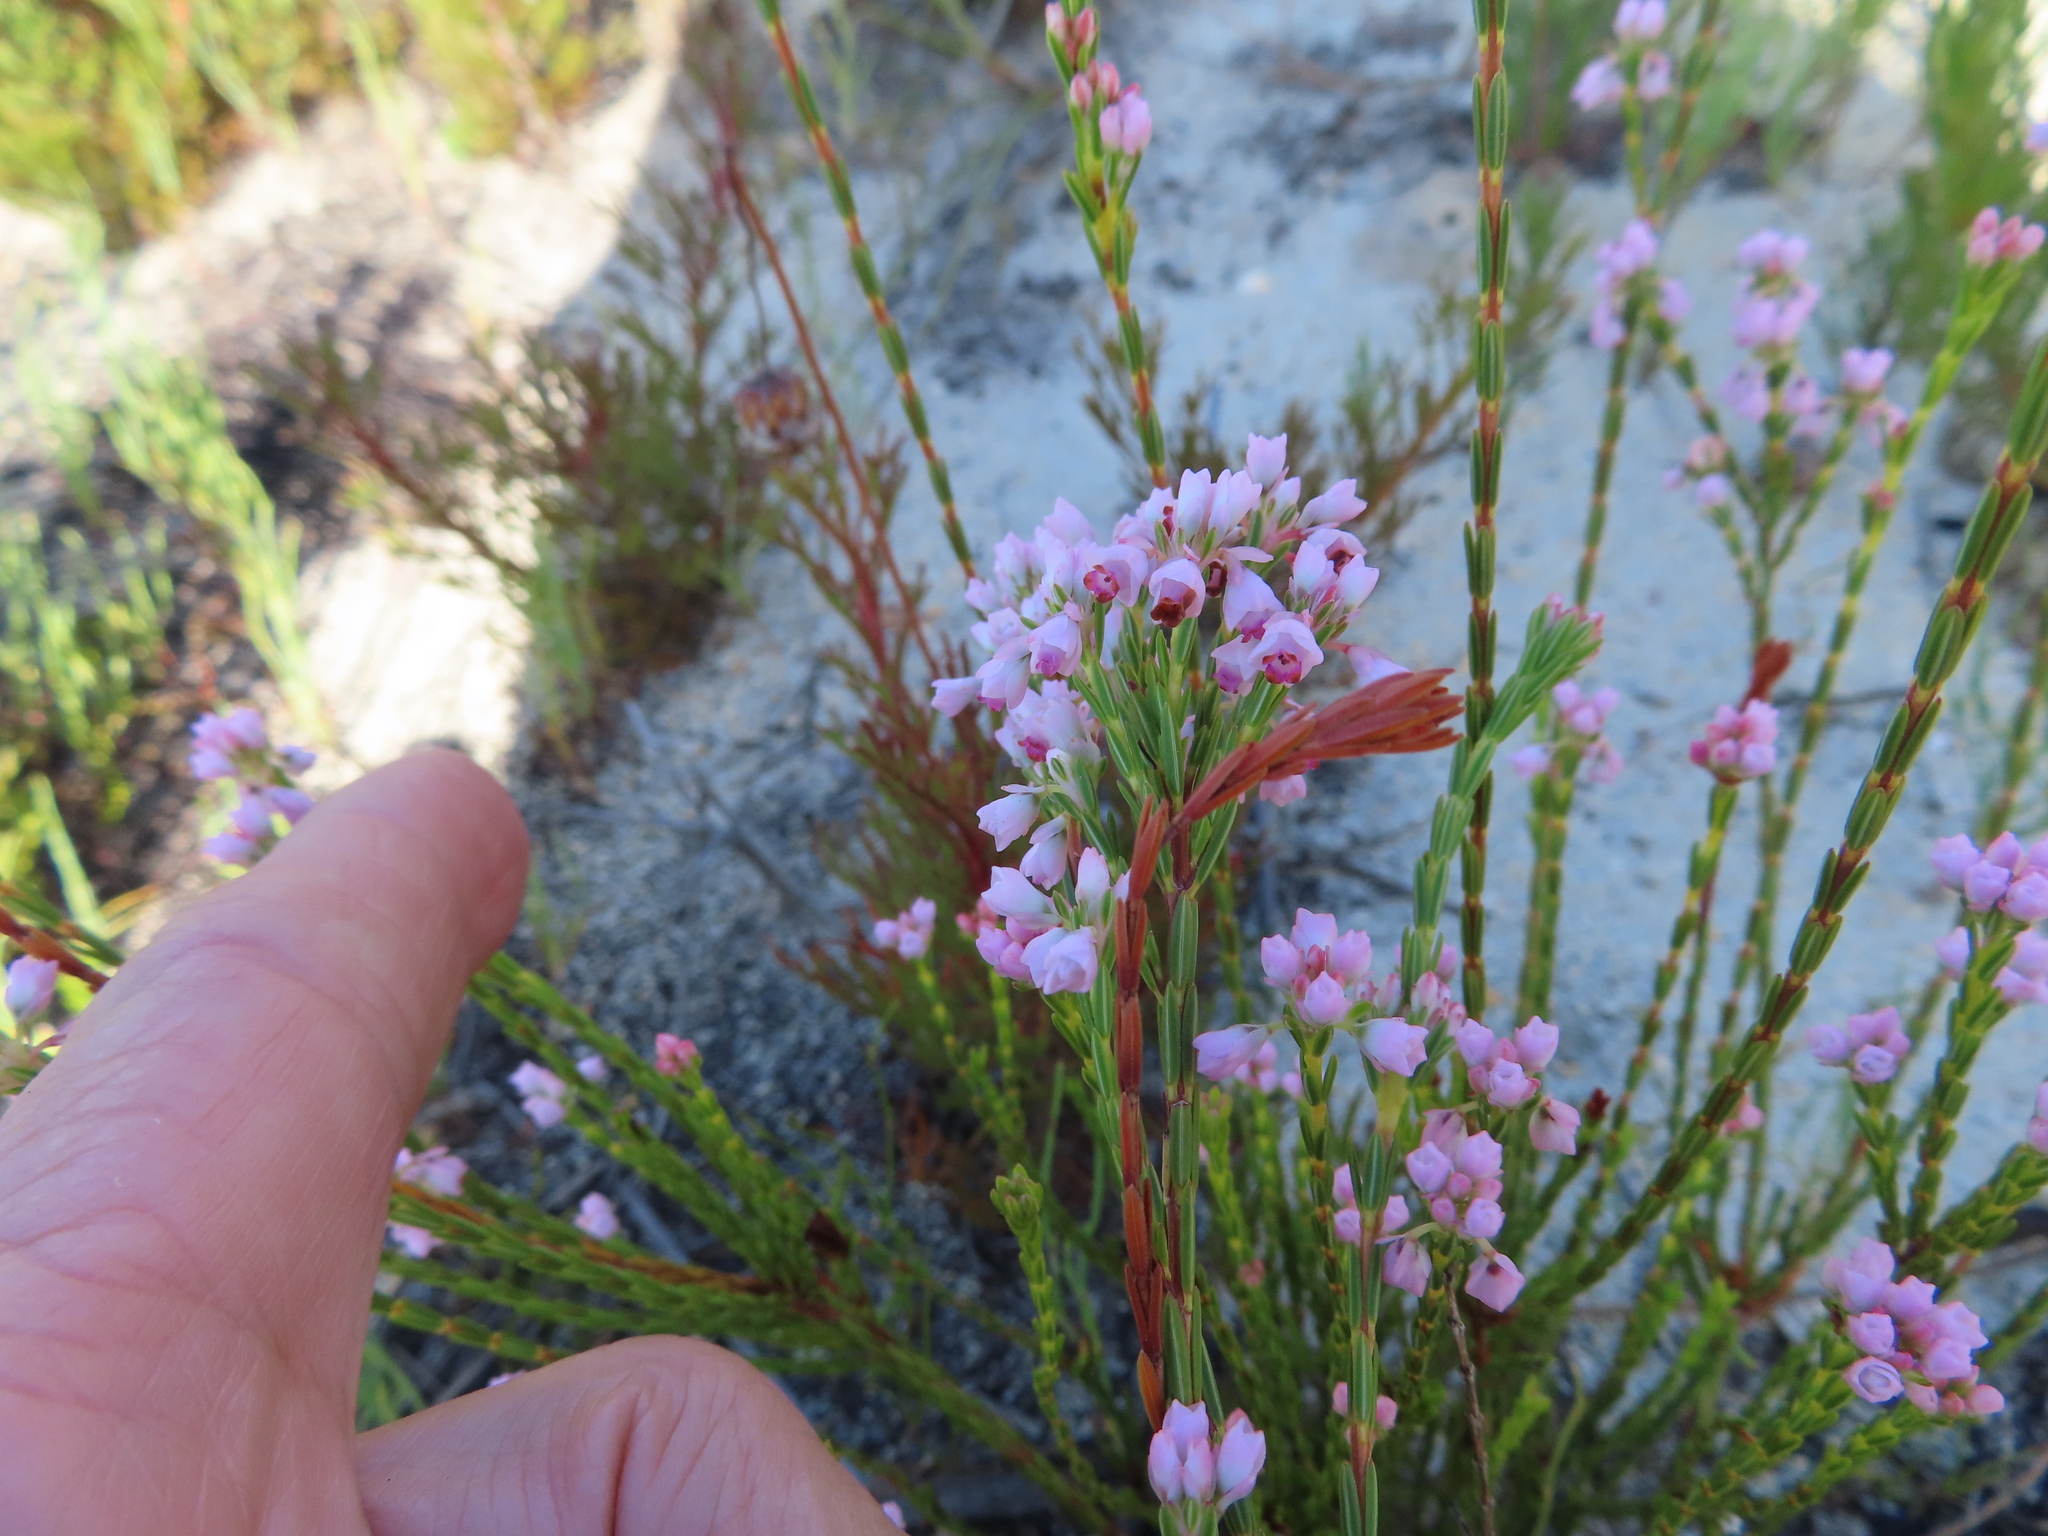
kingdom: Plantae
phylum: Tracheophyta
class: Magnoliopsida
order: Ericales
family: Ericaceae
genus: Erica
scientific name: Erica articularis
